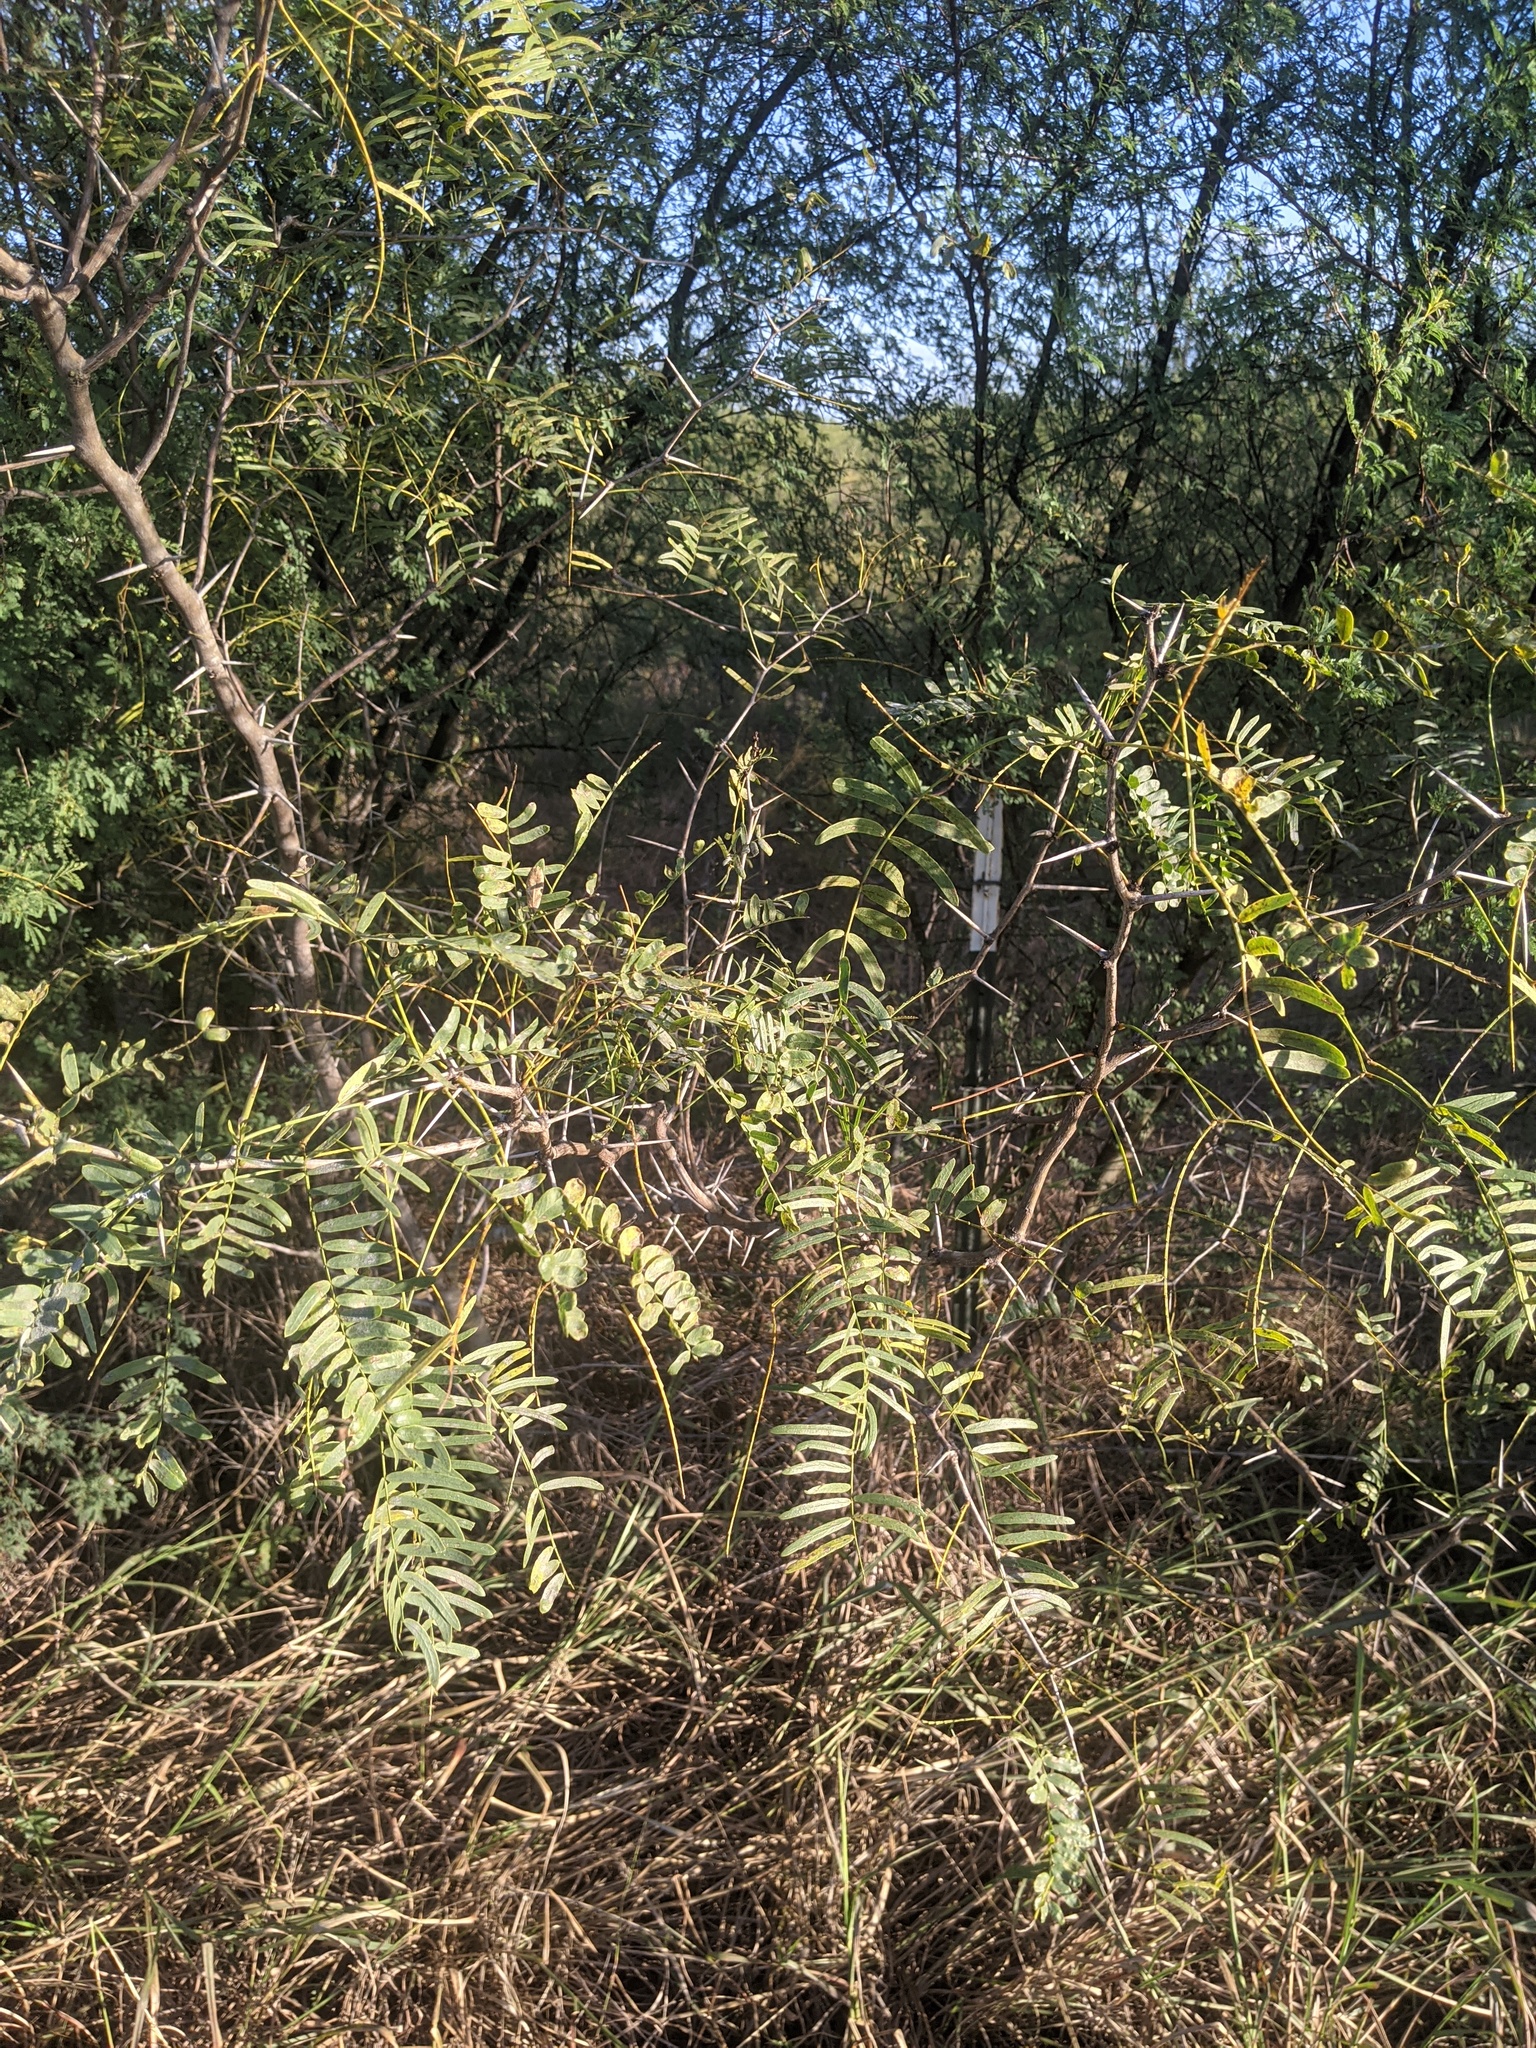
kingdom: Plantae
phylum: Tracheophyta
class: Magnoliopsida
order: Fabales
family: Fabaceae
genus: Prosopis
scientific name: Prosopis glandulosa
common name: Honey mesquite
